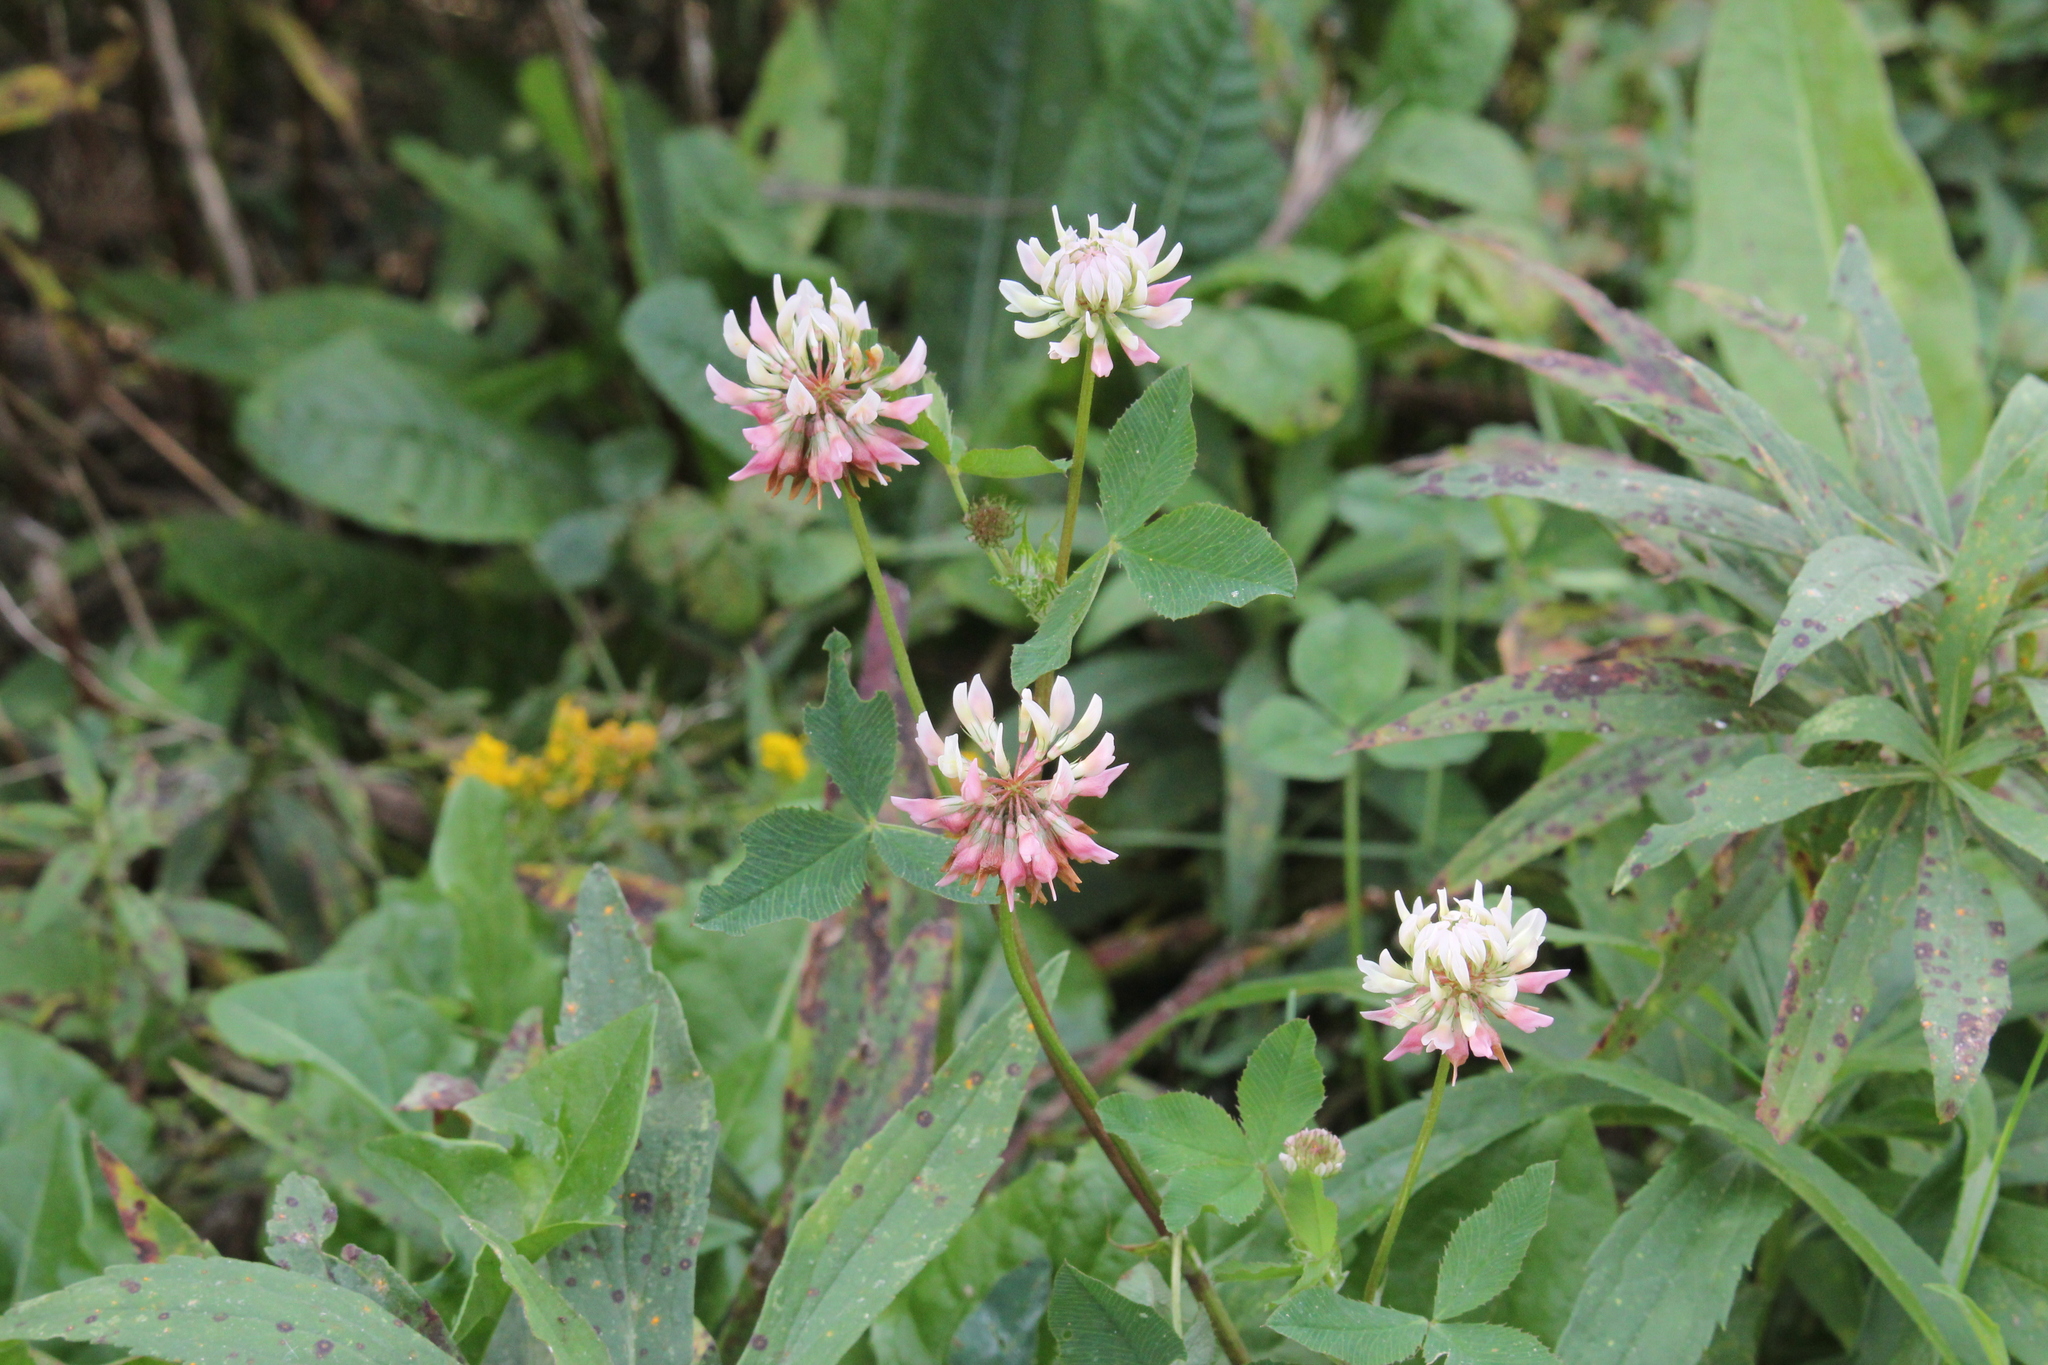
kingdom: Plantae
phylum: Tracheophyta
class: Magnoliopsida
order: Fabales
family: Fabaceae
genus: Trifolium
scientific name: Trifolium hybridum
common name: Alsike clover
